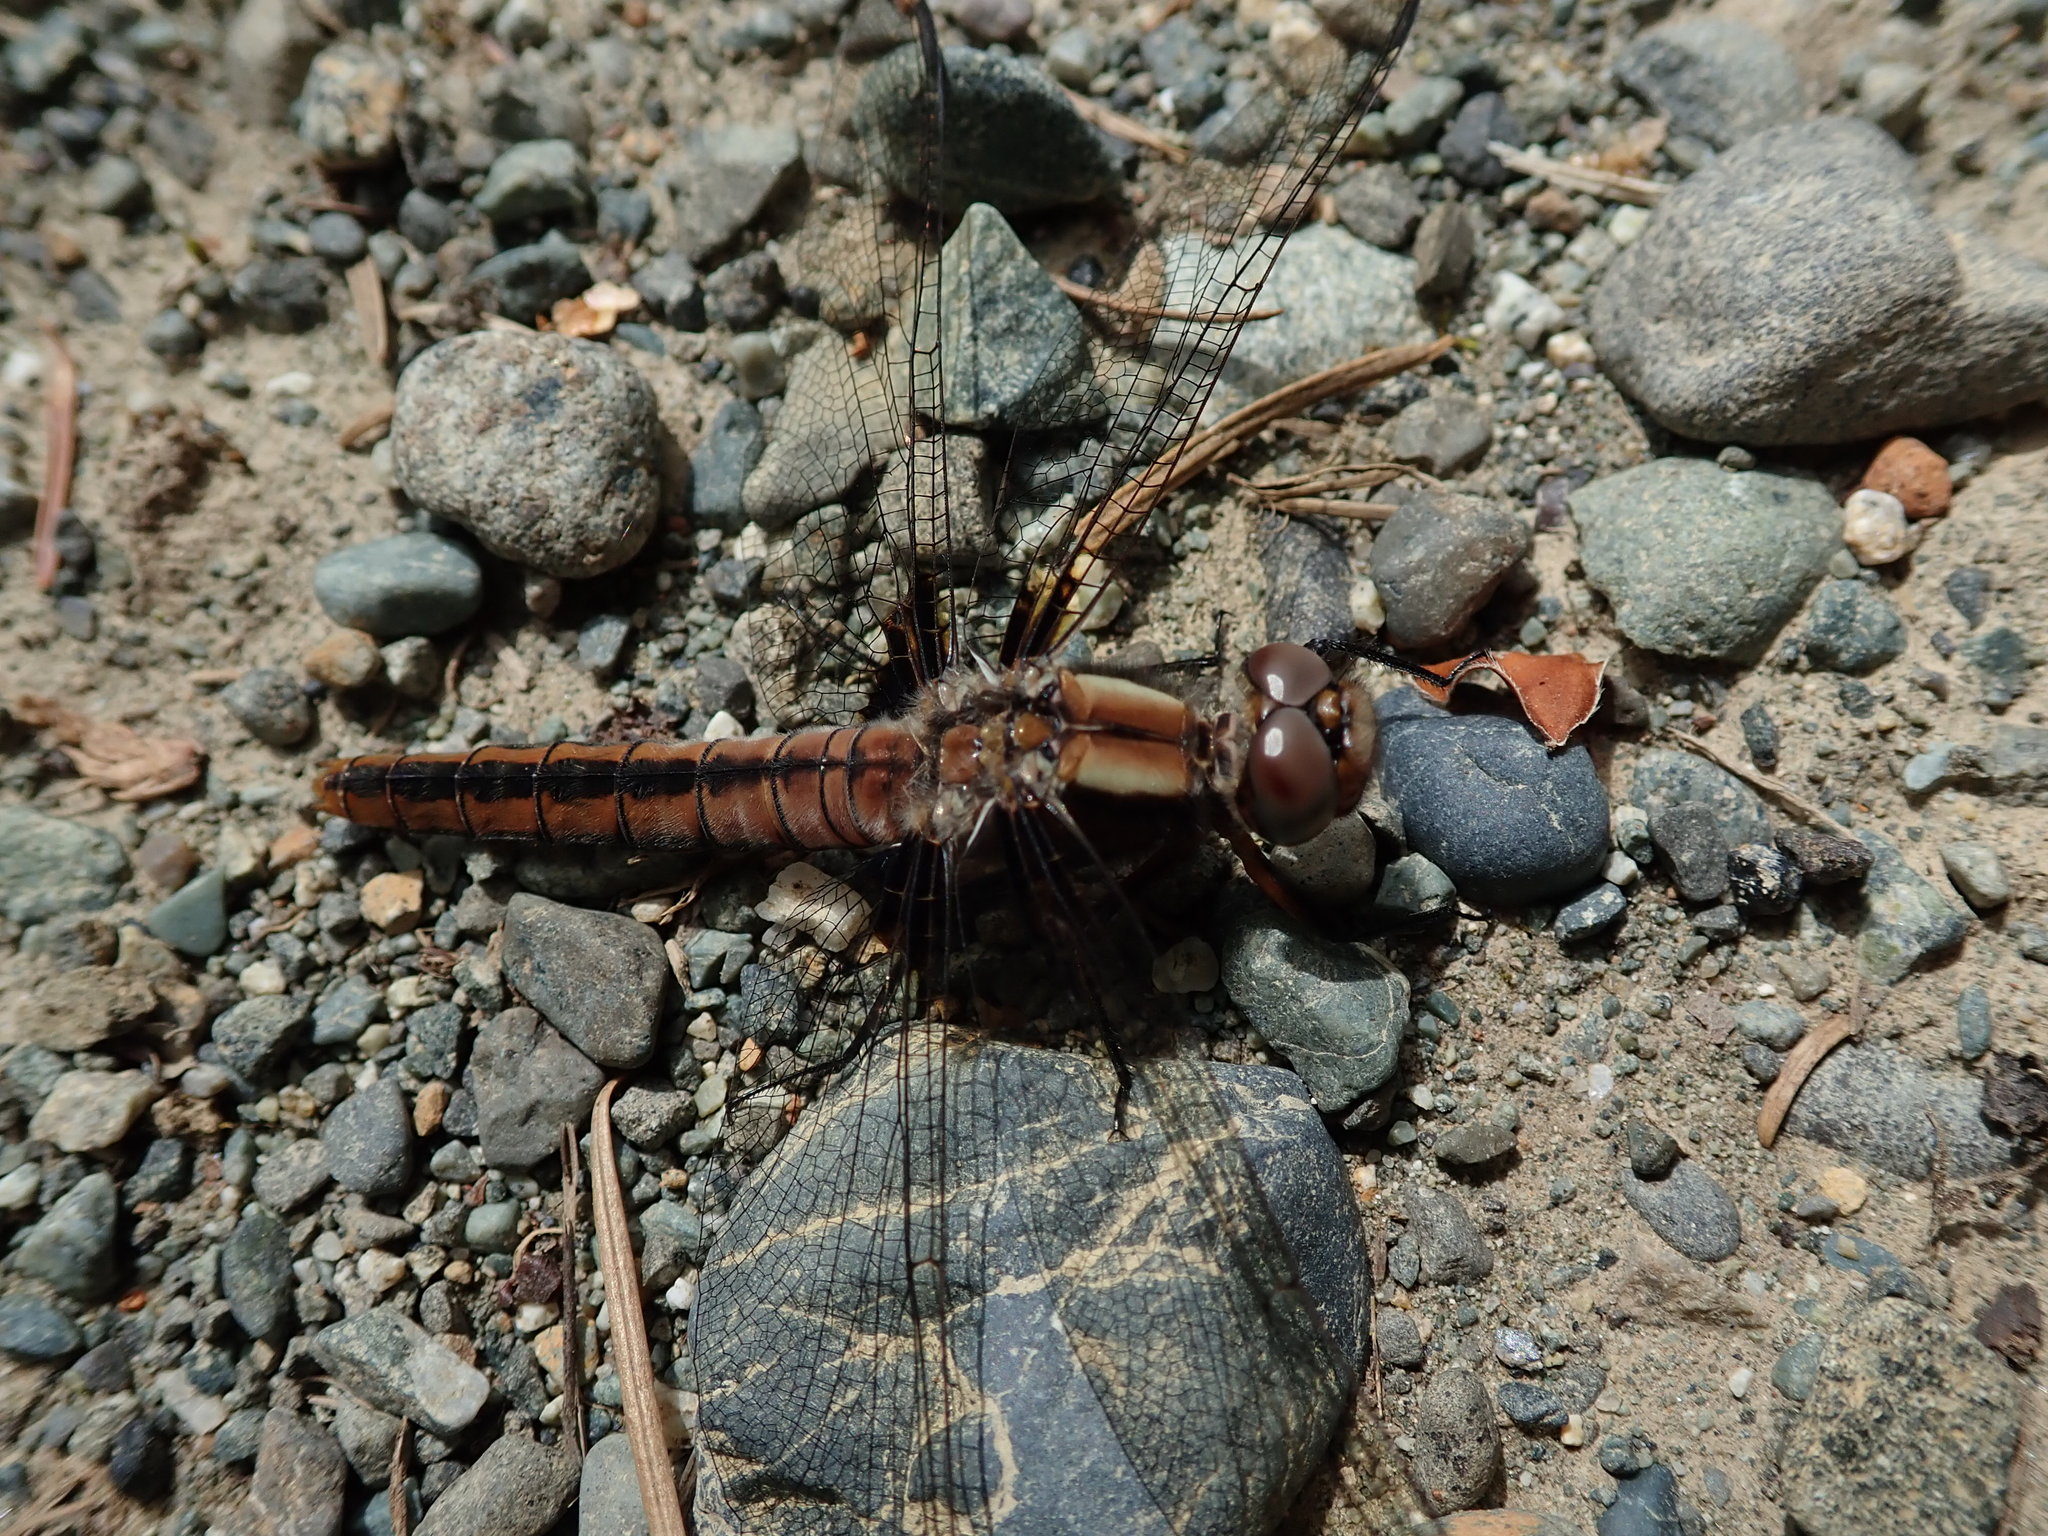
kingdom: Animalia
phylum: Arthropoda
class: Insecta
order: Odonata
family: Libellulidae
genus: Ladona
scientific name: Ladona julia
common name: Chalk-fronted corporal
